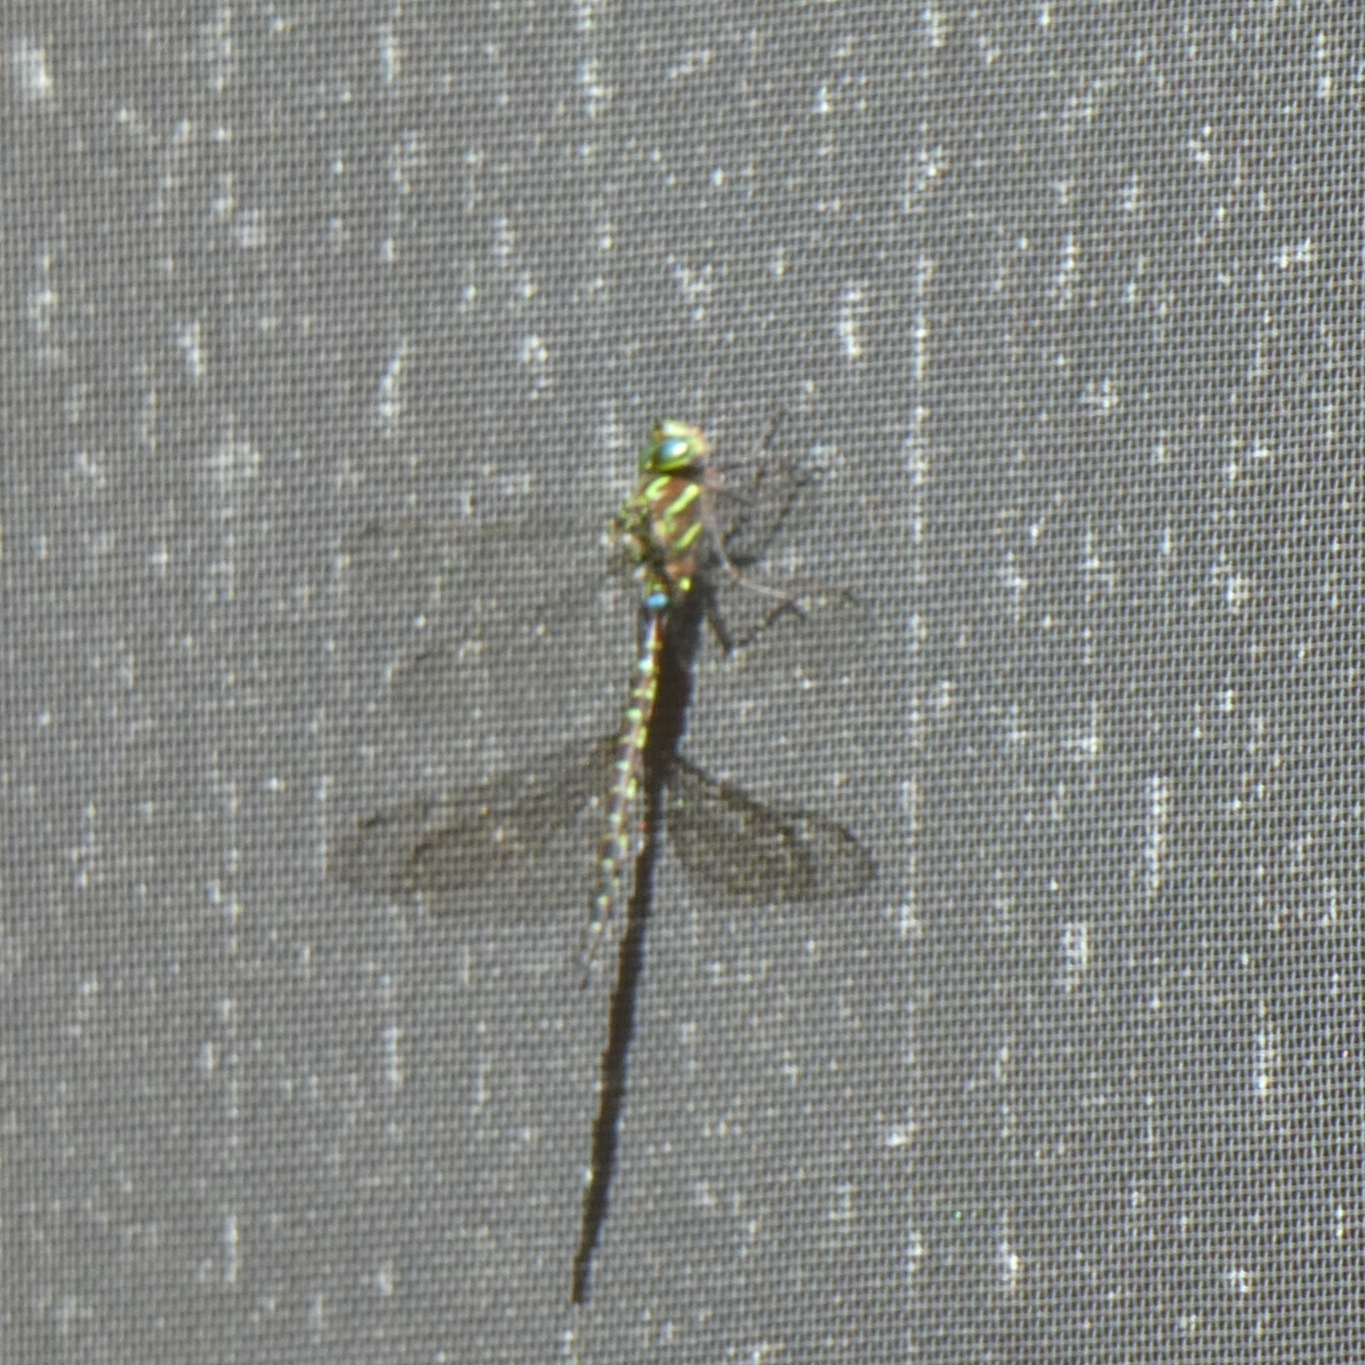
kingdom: Animalia
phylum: Arthropoda
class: Insecta
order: Odonata
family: Aeshnidae
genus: Aeshna
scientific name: Aeshna umbrosa
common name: Shadow darner
